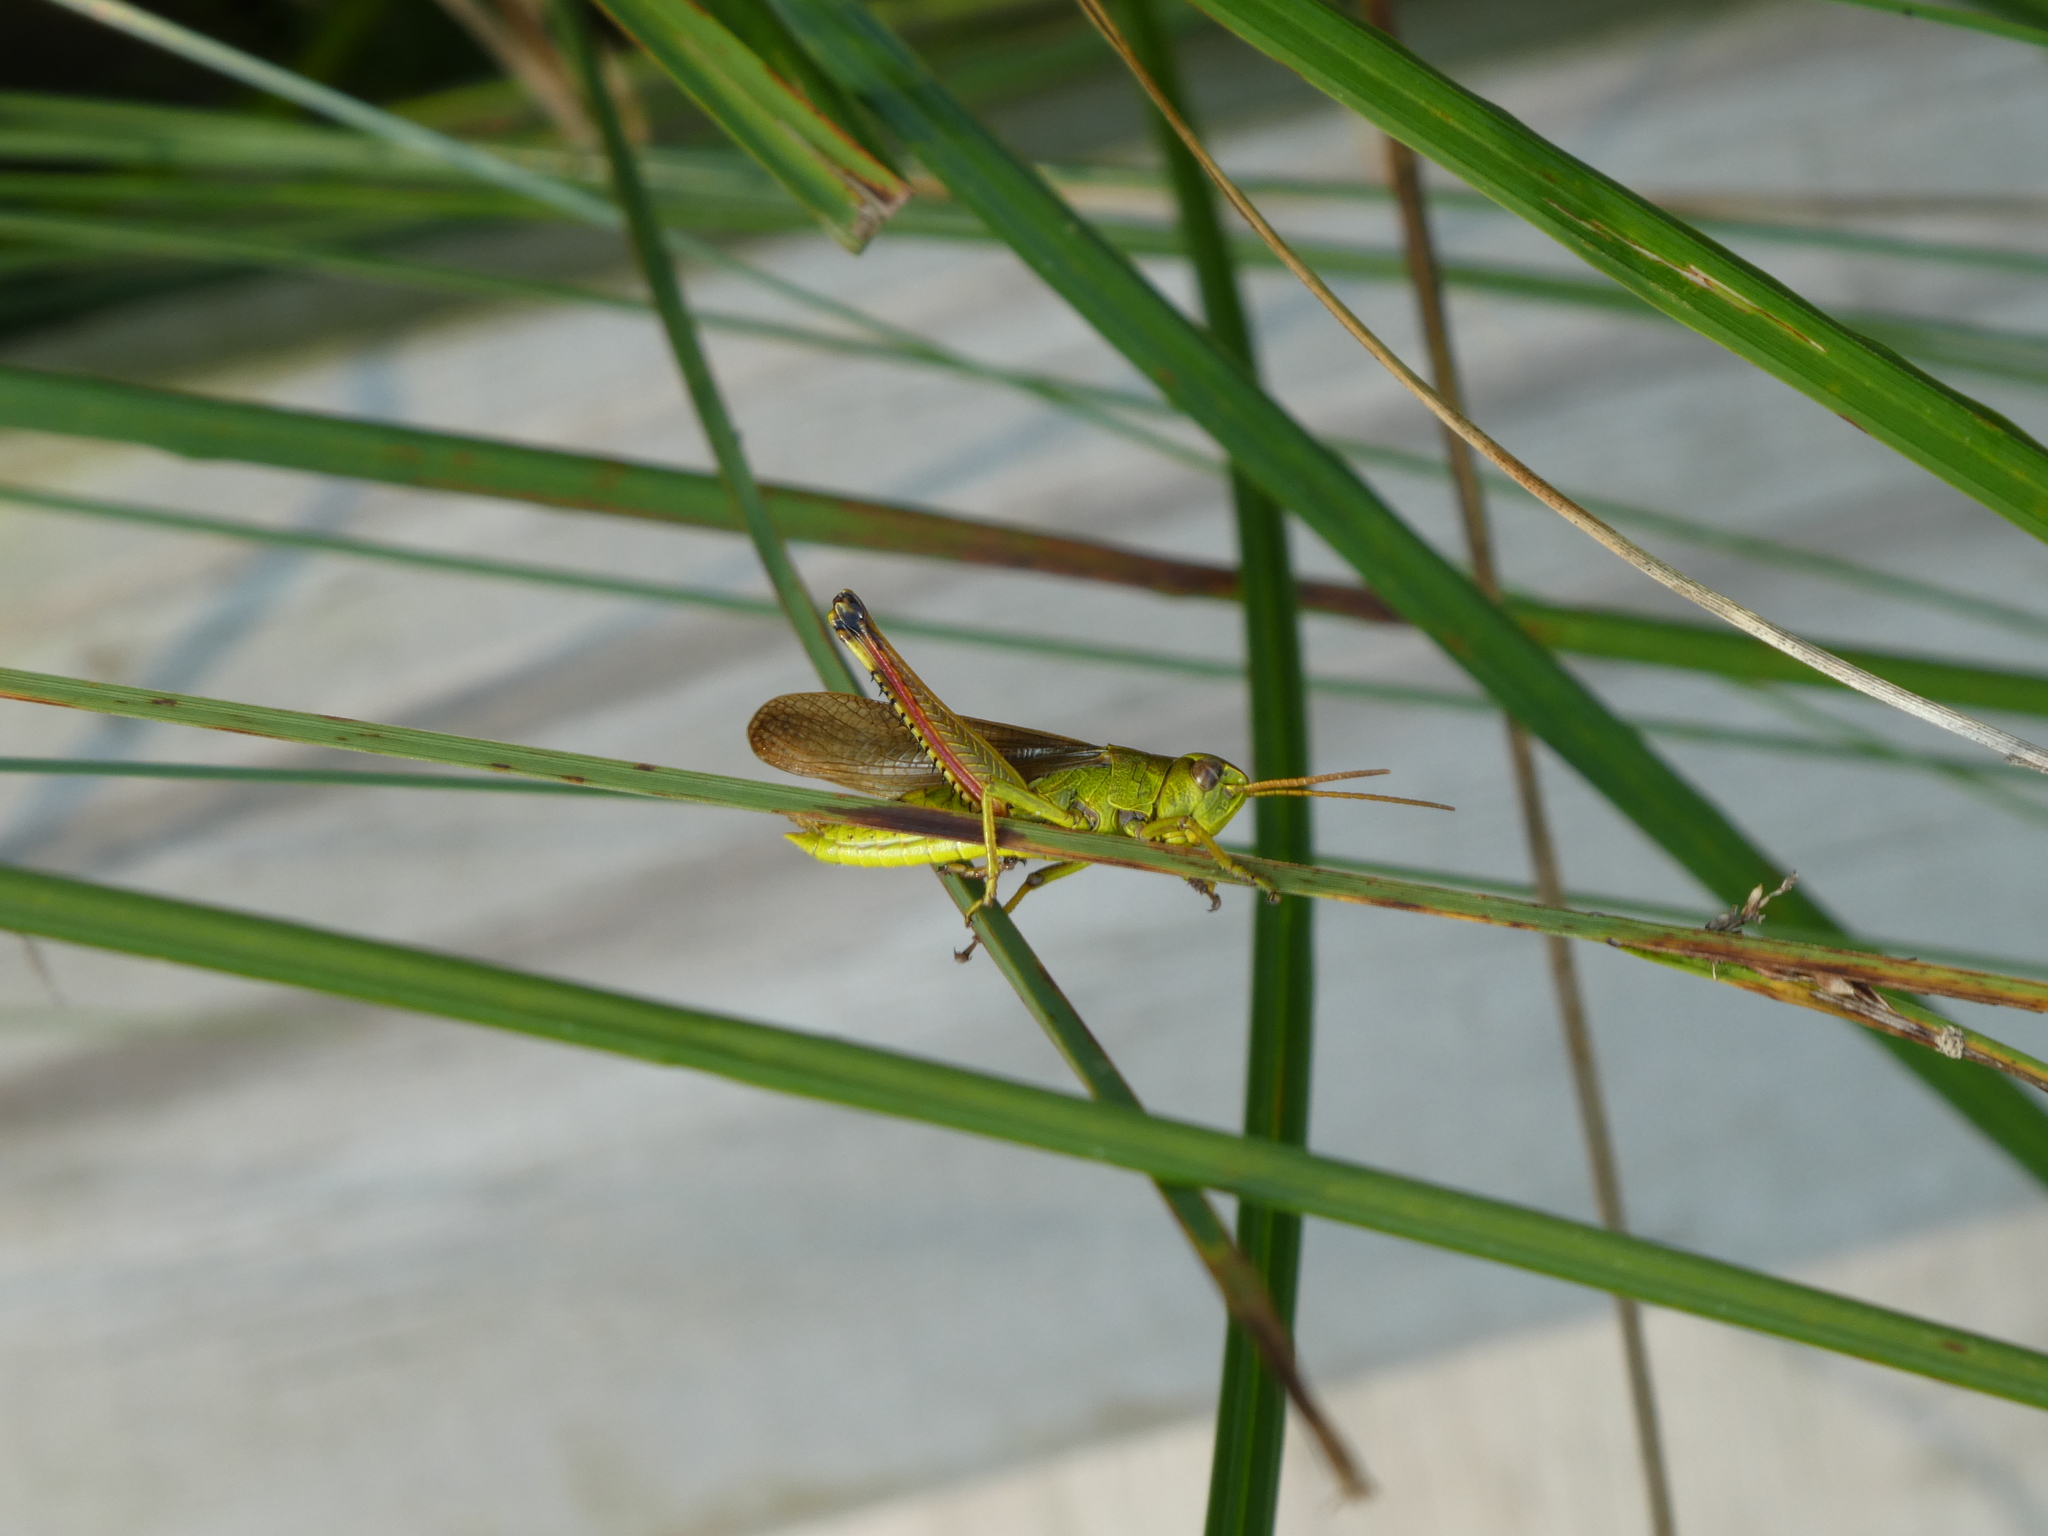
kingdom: Animalia
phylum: Arthropoda
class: Insecta
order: Orthoptera
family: Acrididae
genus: Stethophyma
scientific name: Stethophyma gracile
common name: Graceful sedge grasshopper
